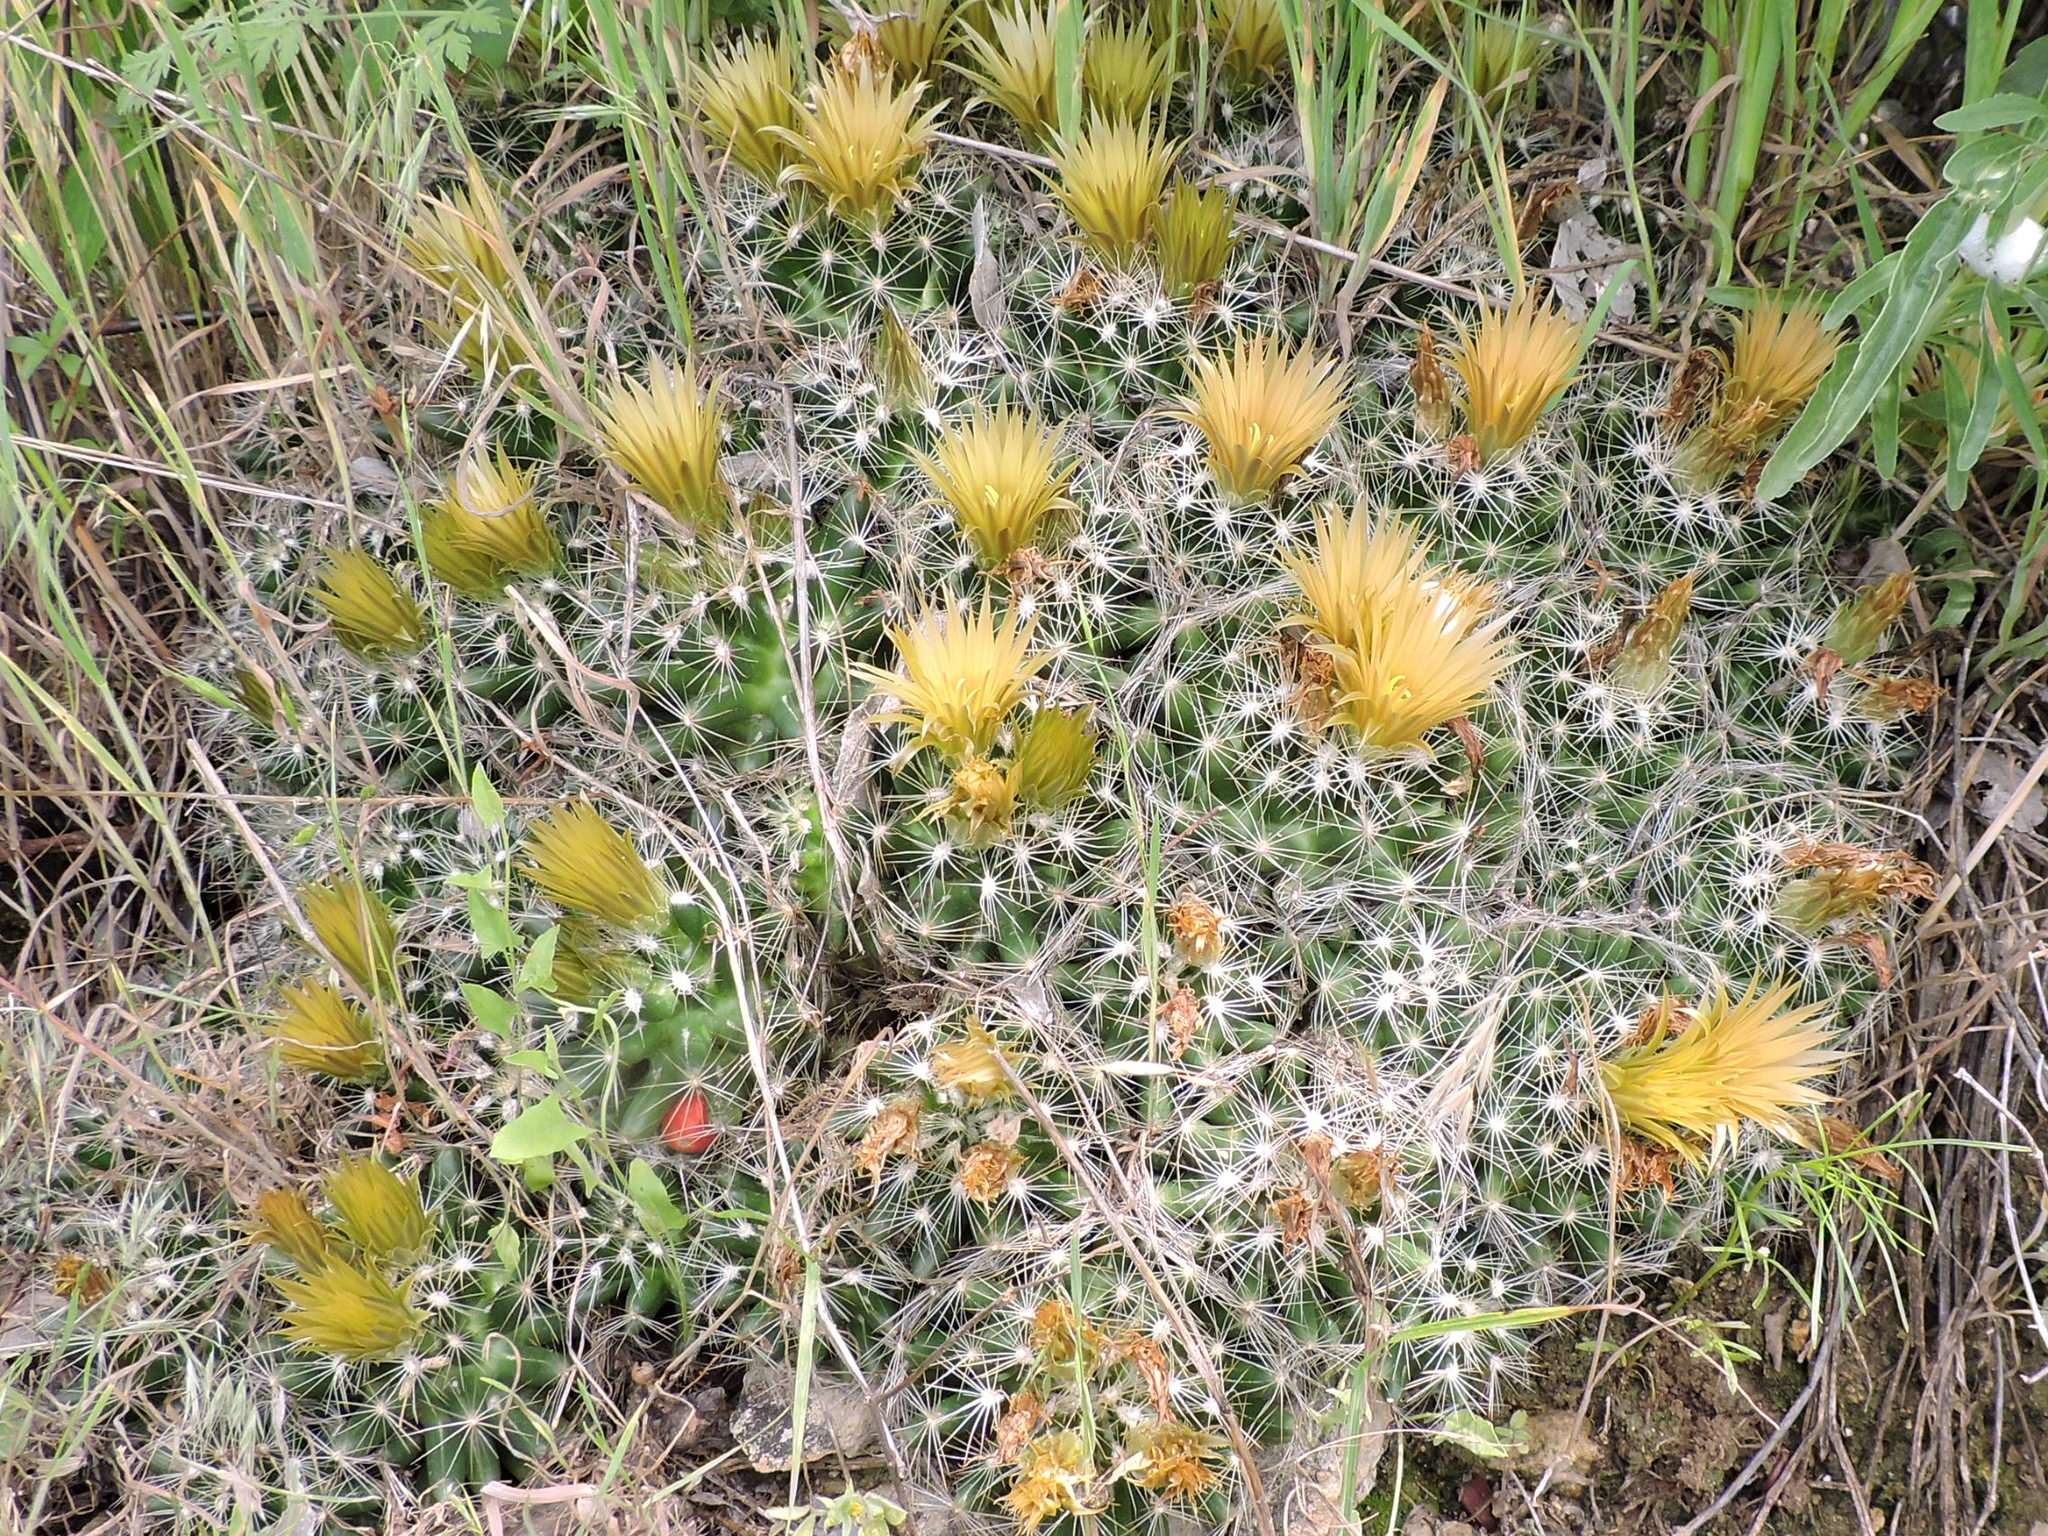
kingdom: Plantae
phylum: Tracheophyta
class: Magnoliopsida
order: Caryophyllales
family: Cactaceae
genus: Pelecyphora
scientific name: Pelecyphora missouriensis
